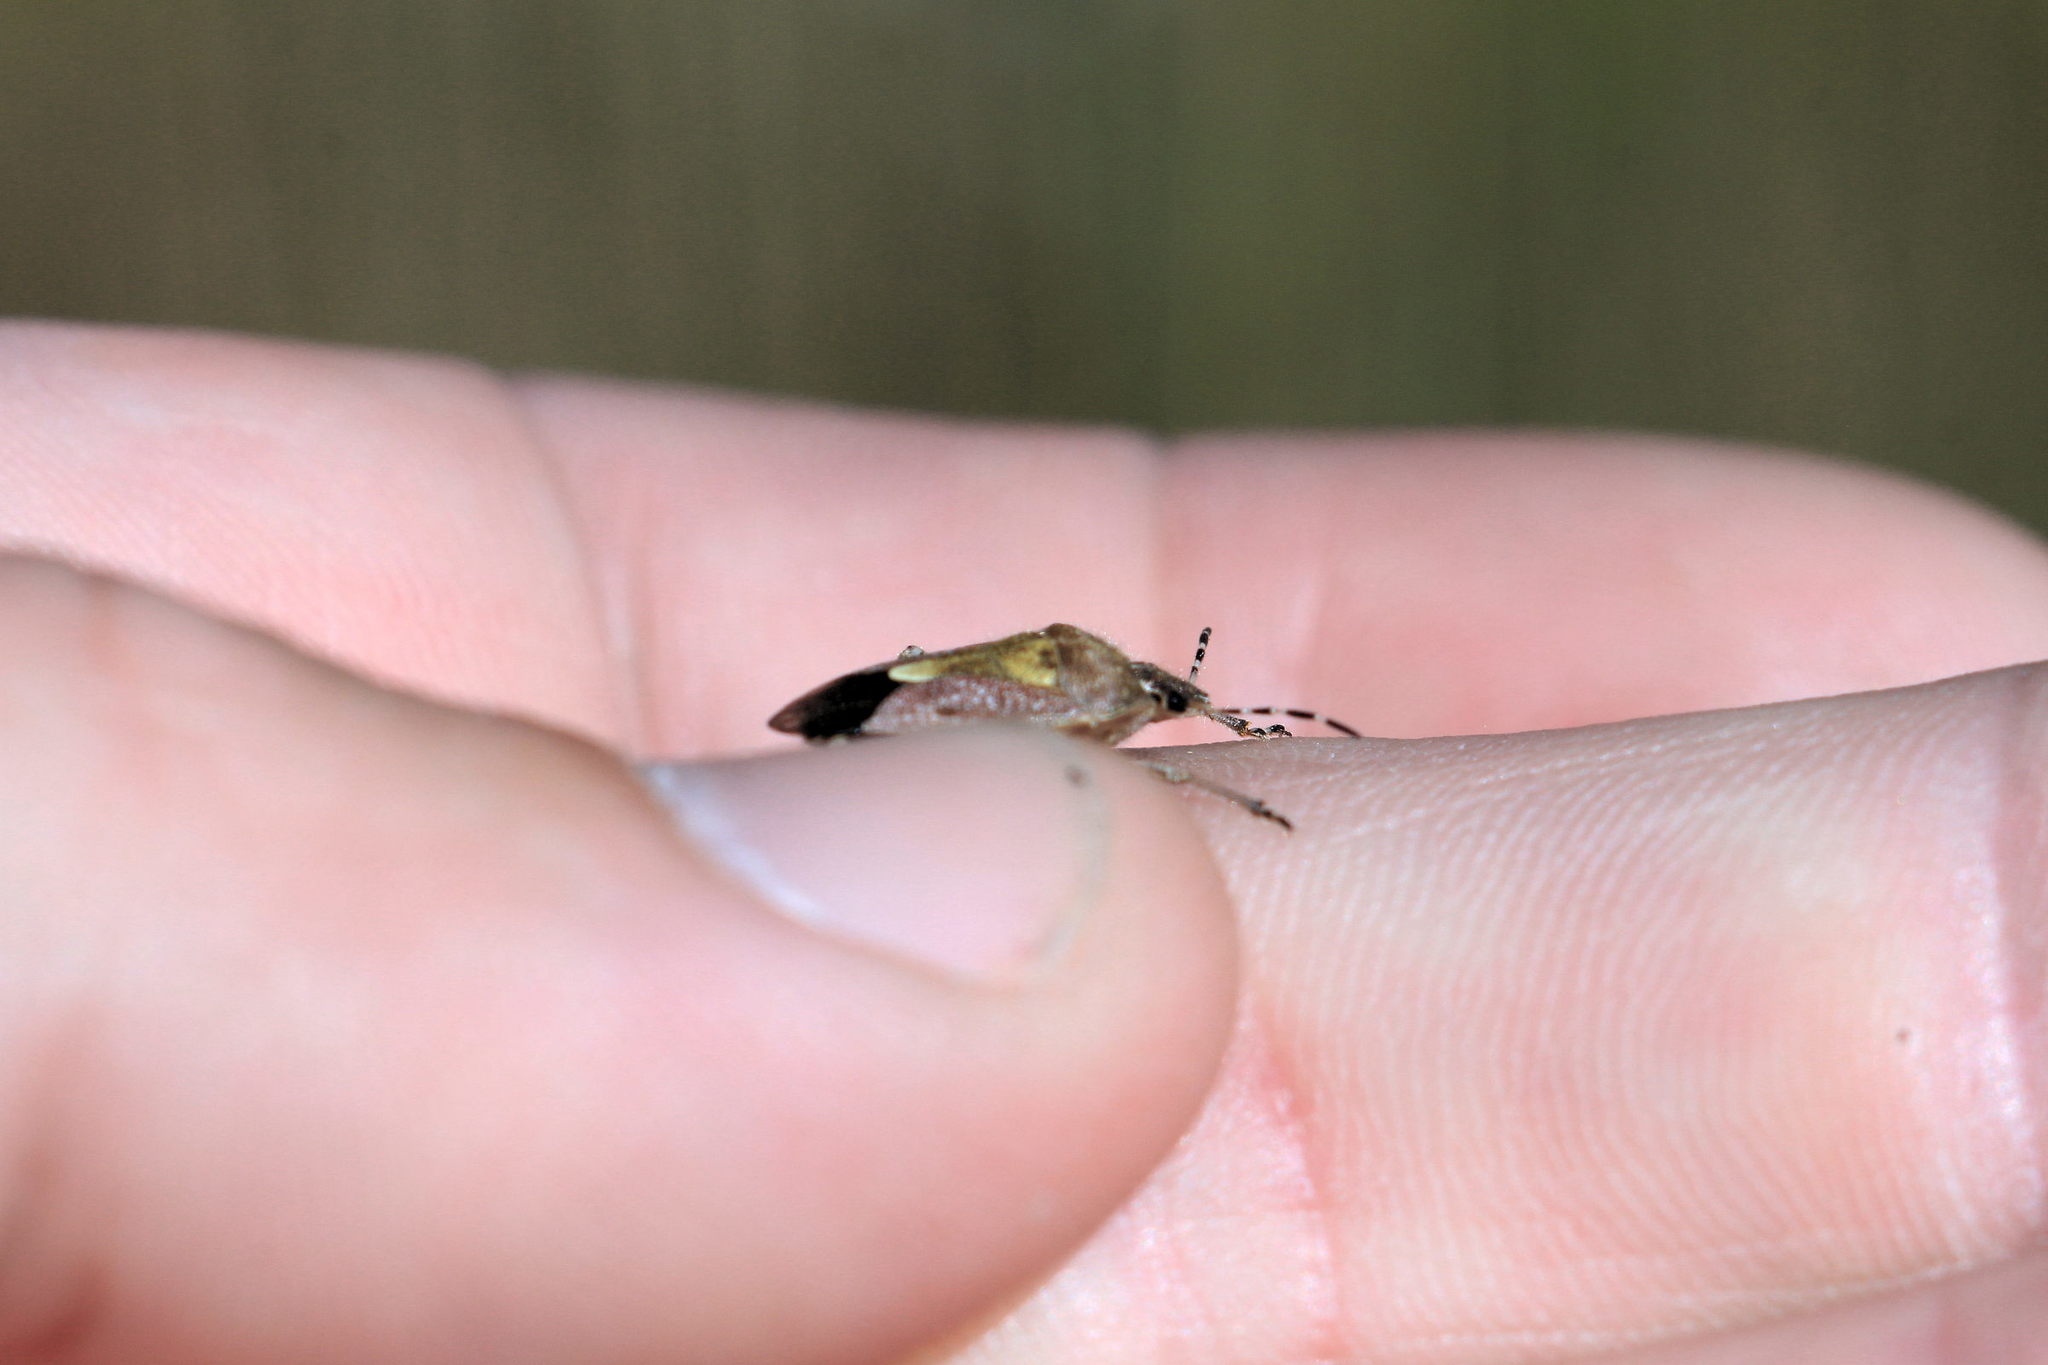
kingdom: Animalia
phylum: Arthropoda
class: Insecta
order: Hemiptera
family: Pentatomidae
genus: Dolycoris
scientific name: Dolycoris baccarum
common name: Sloe bug
